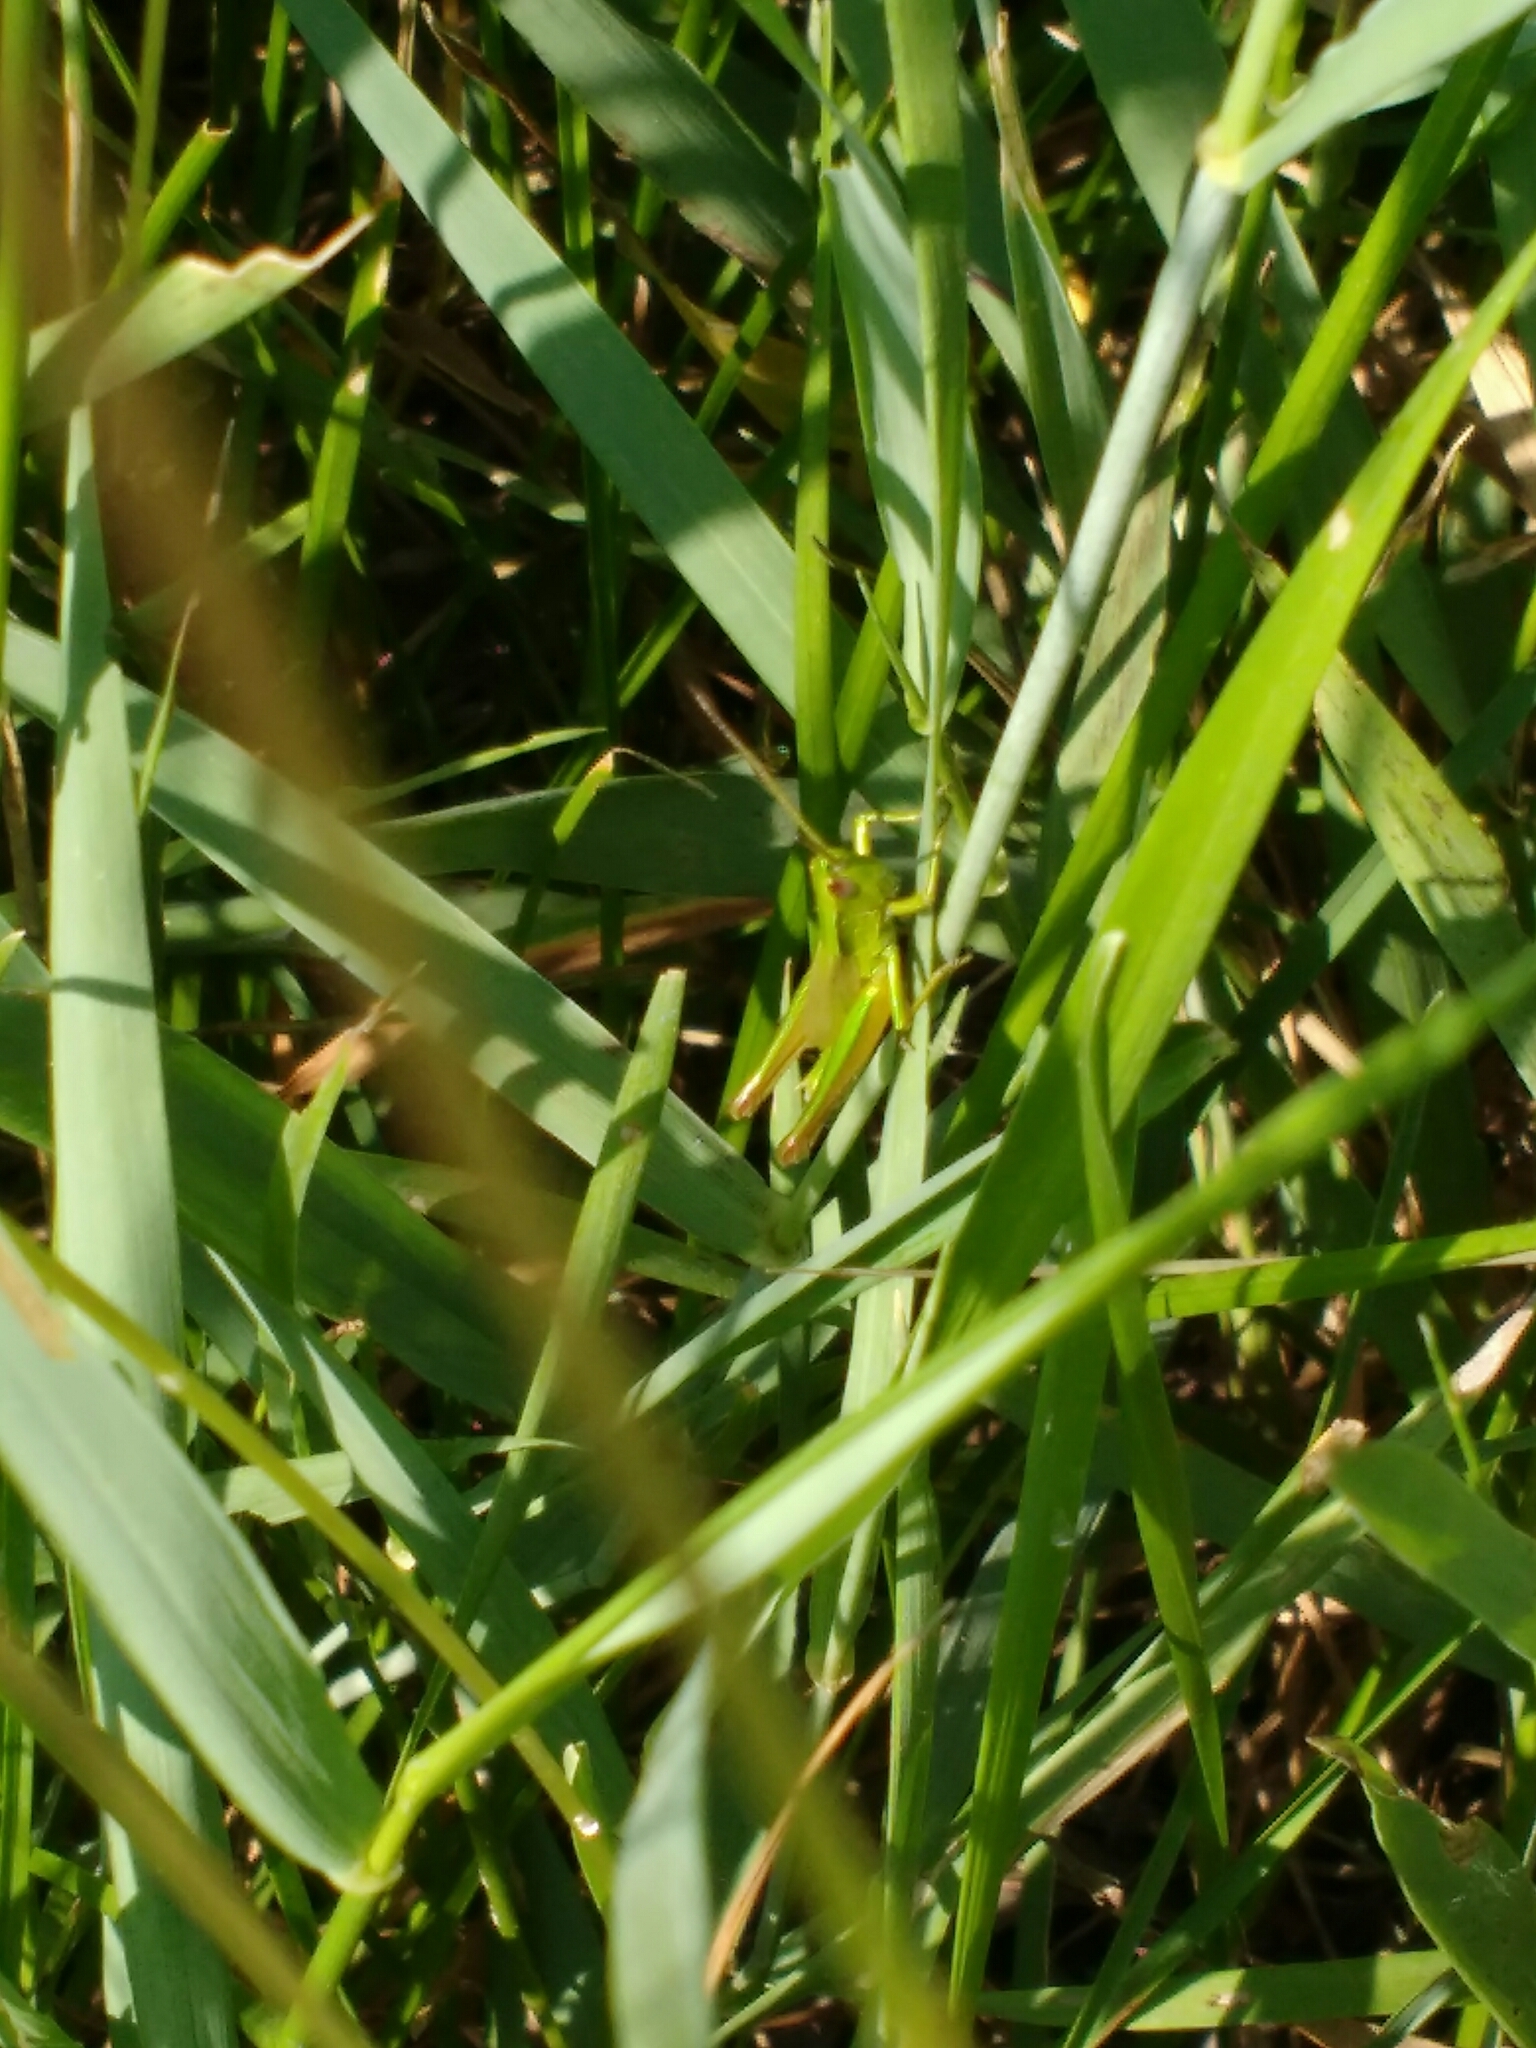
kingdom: Animalia
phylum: Arthropoda
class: Insecta
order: Orthoptera
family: Acrididae
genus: Euthystira
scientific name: Euthystira brachyptera
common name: Small gold grasshopper
